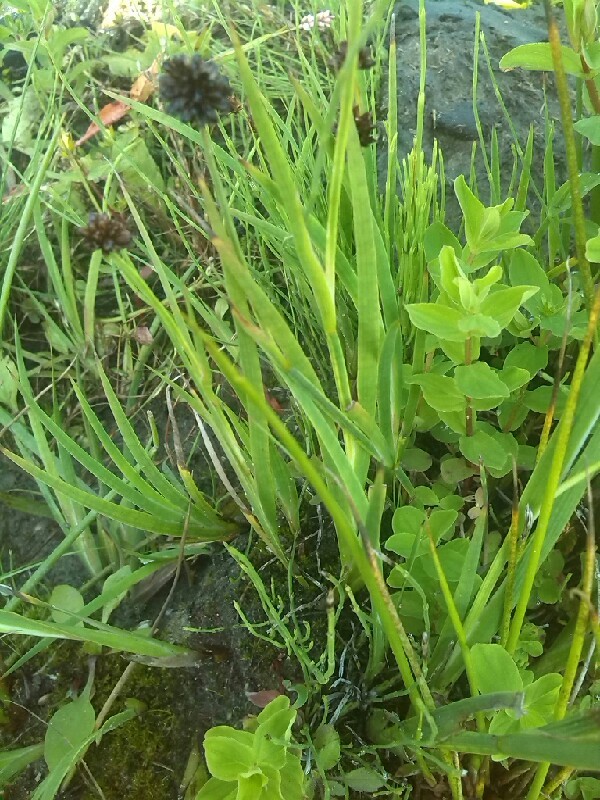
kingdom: Plantae
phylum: Tracheophyta
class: Liliopsida
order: Poales
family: Juncaceae
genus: Juncus
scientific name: Juncus ensifolius
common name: Sword-leaved rush
